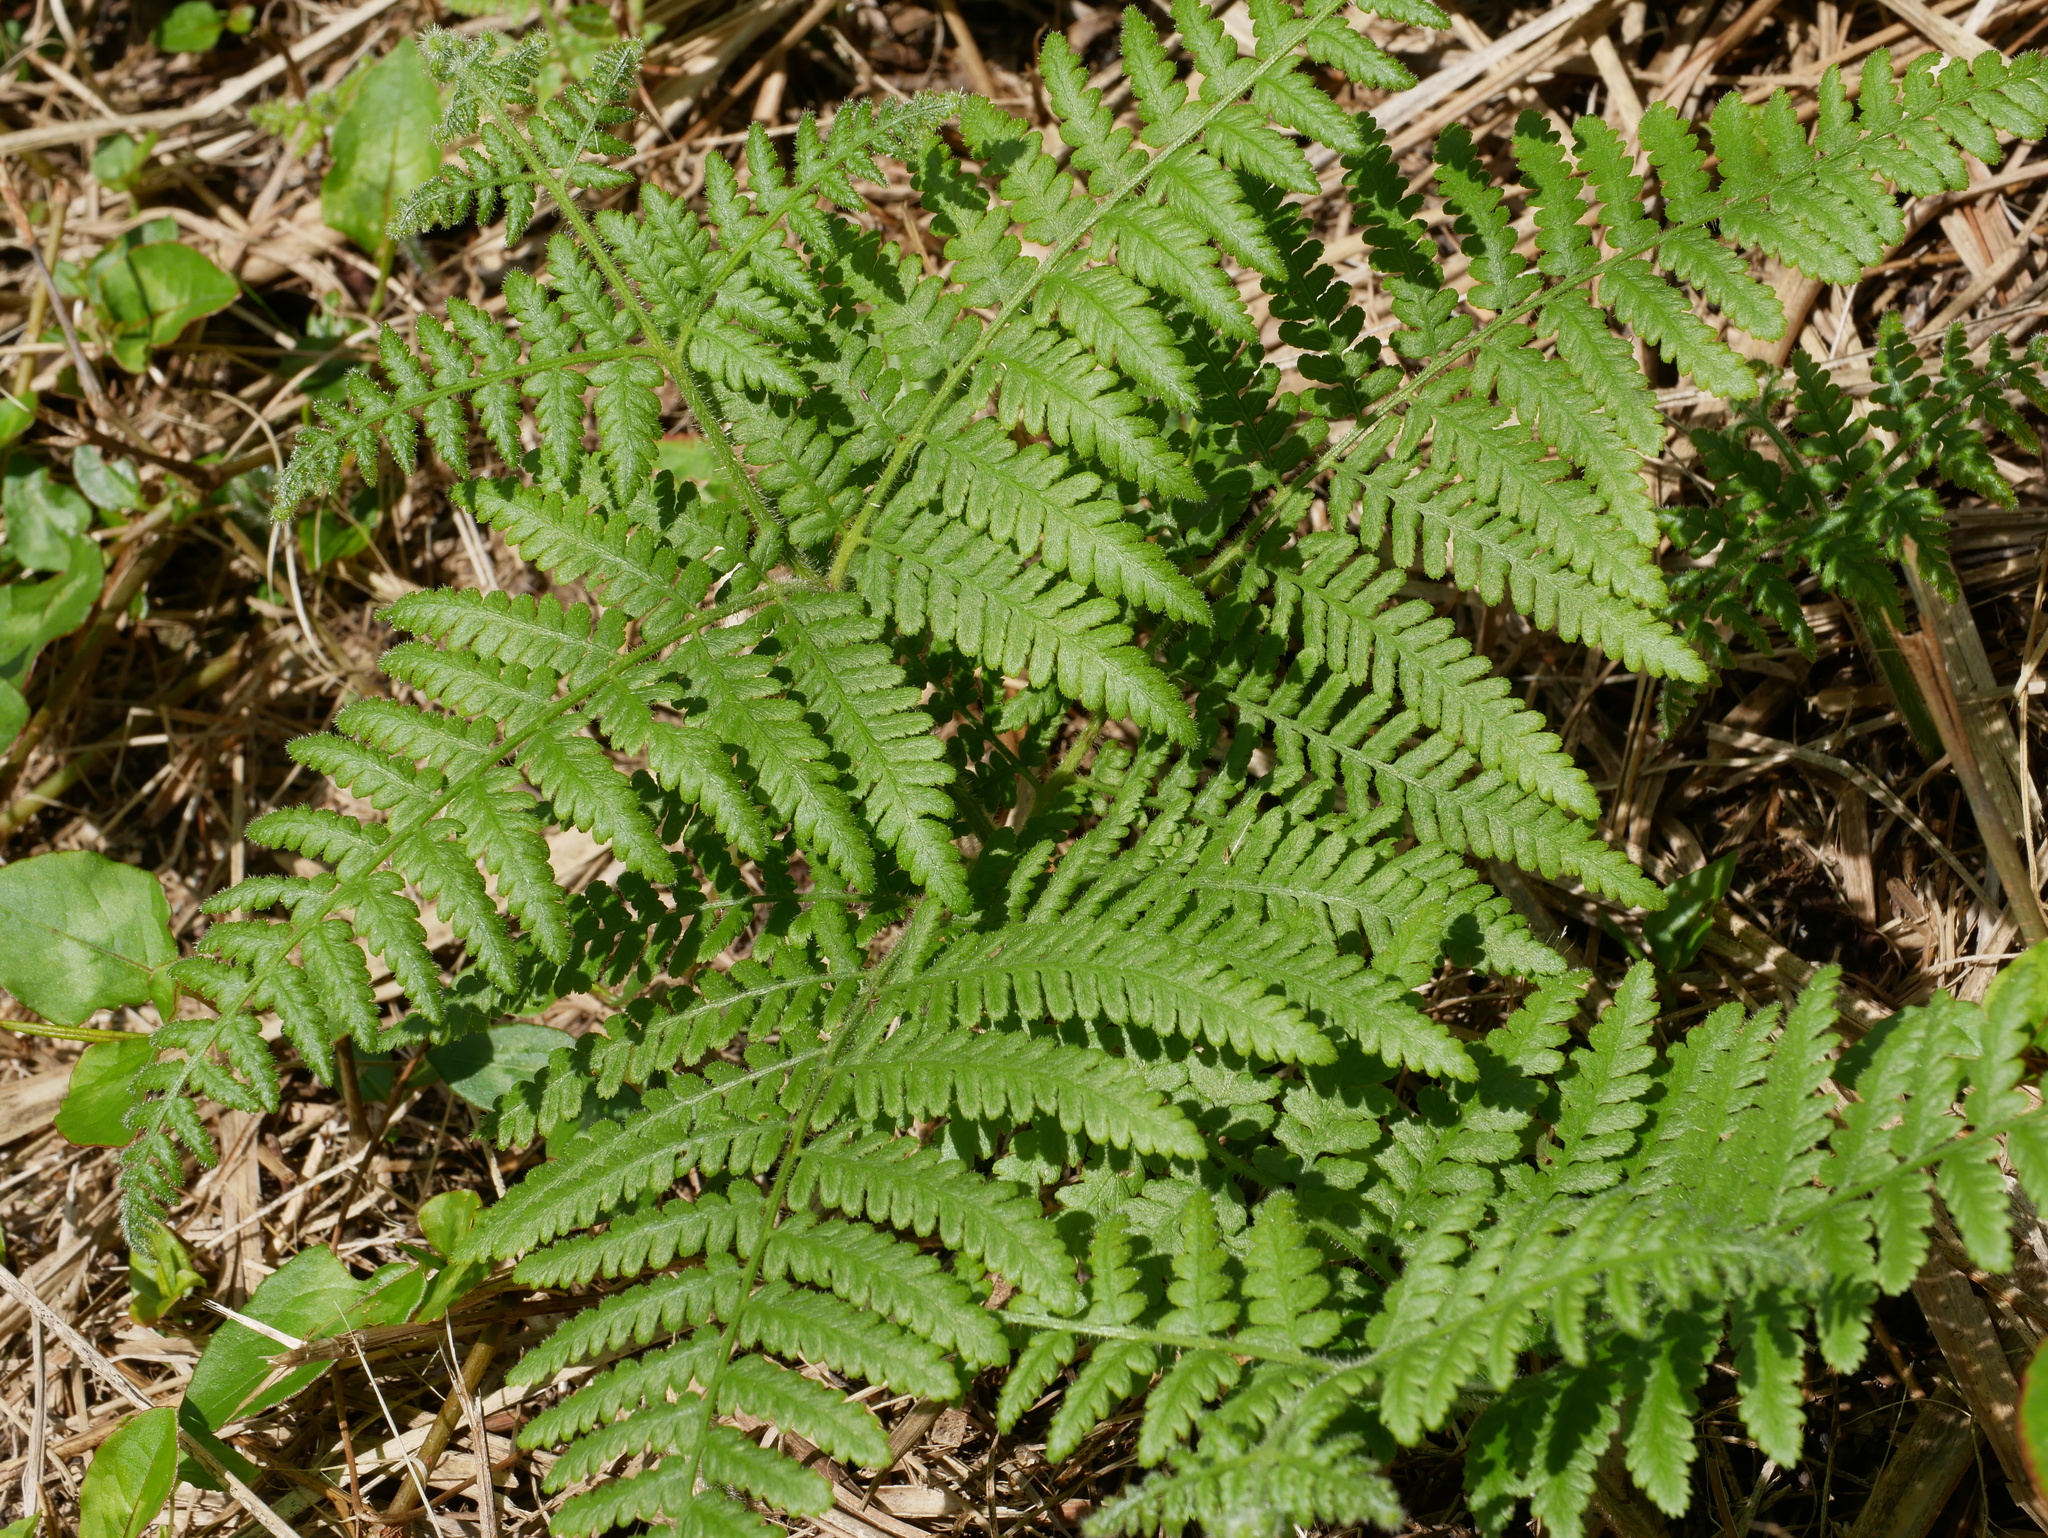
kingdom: Plantae
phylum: Tracheophyta
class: Polypodiopsida
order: Polypodiales
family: Dennstaedtiaceae
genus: Hypolepis
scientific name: Hypolepis punctata
